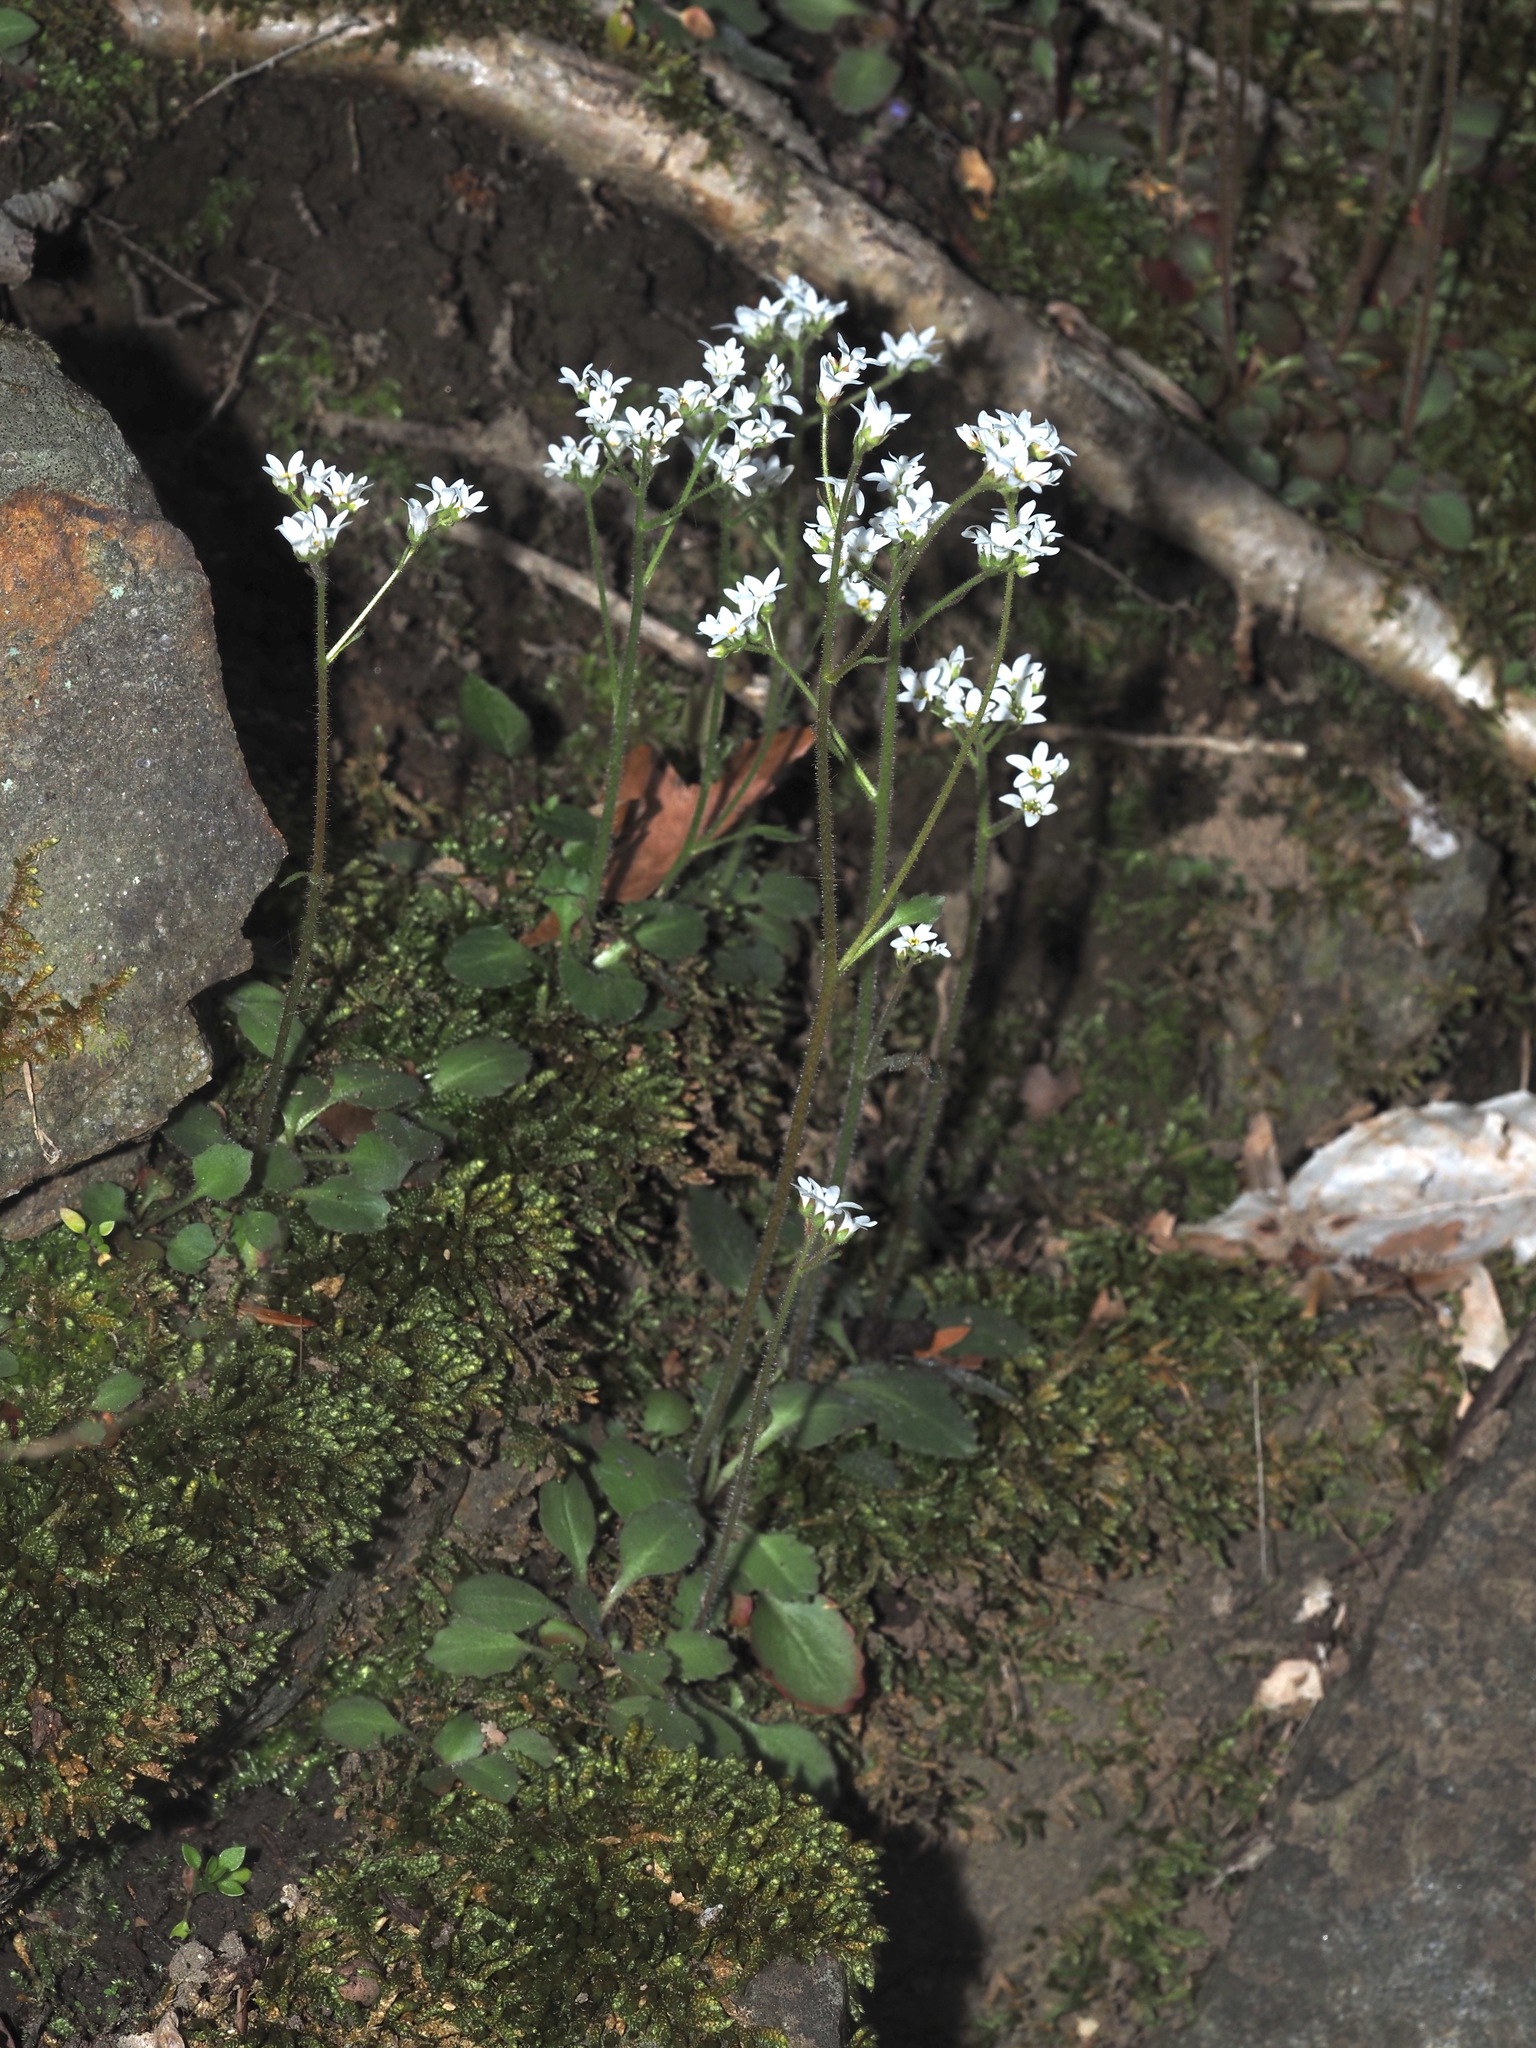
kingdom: Plantae
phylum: Tracheophyta
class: Magnoliopsida
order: Saxifragales
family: Saxifragaceae
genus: Micranthes
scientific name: Micranthes virginiensis
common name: Early saxifrage
